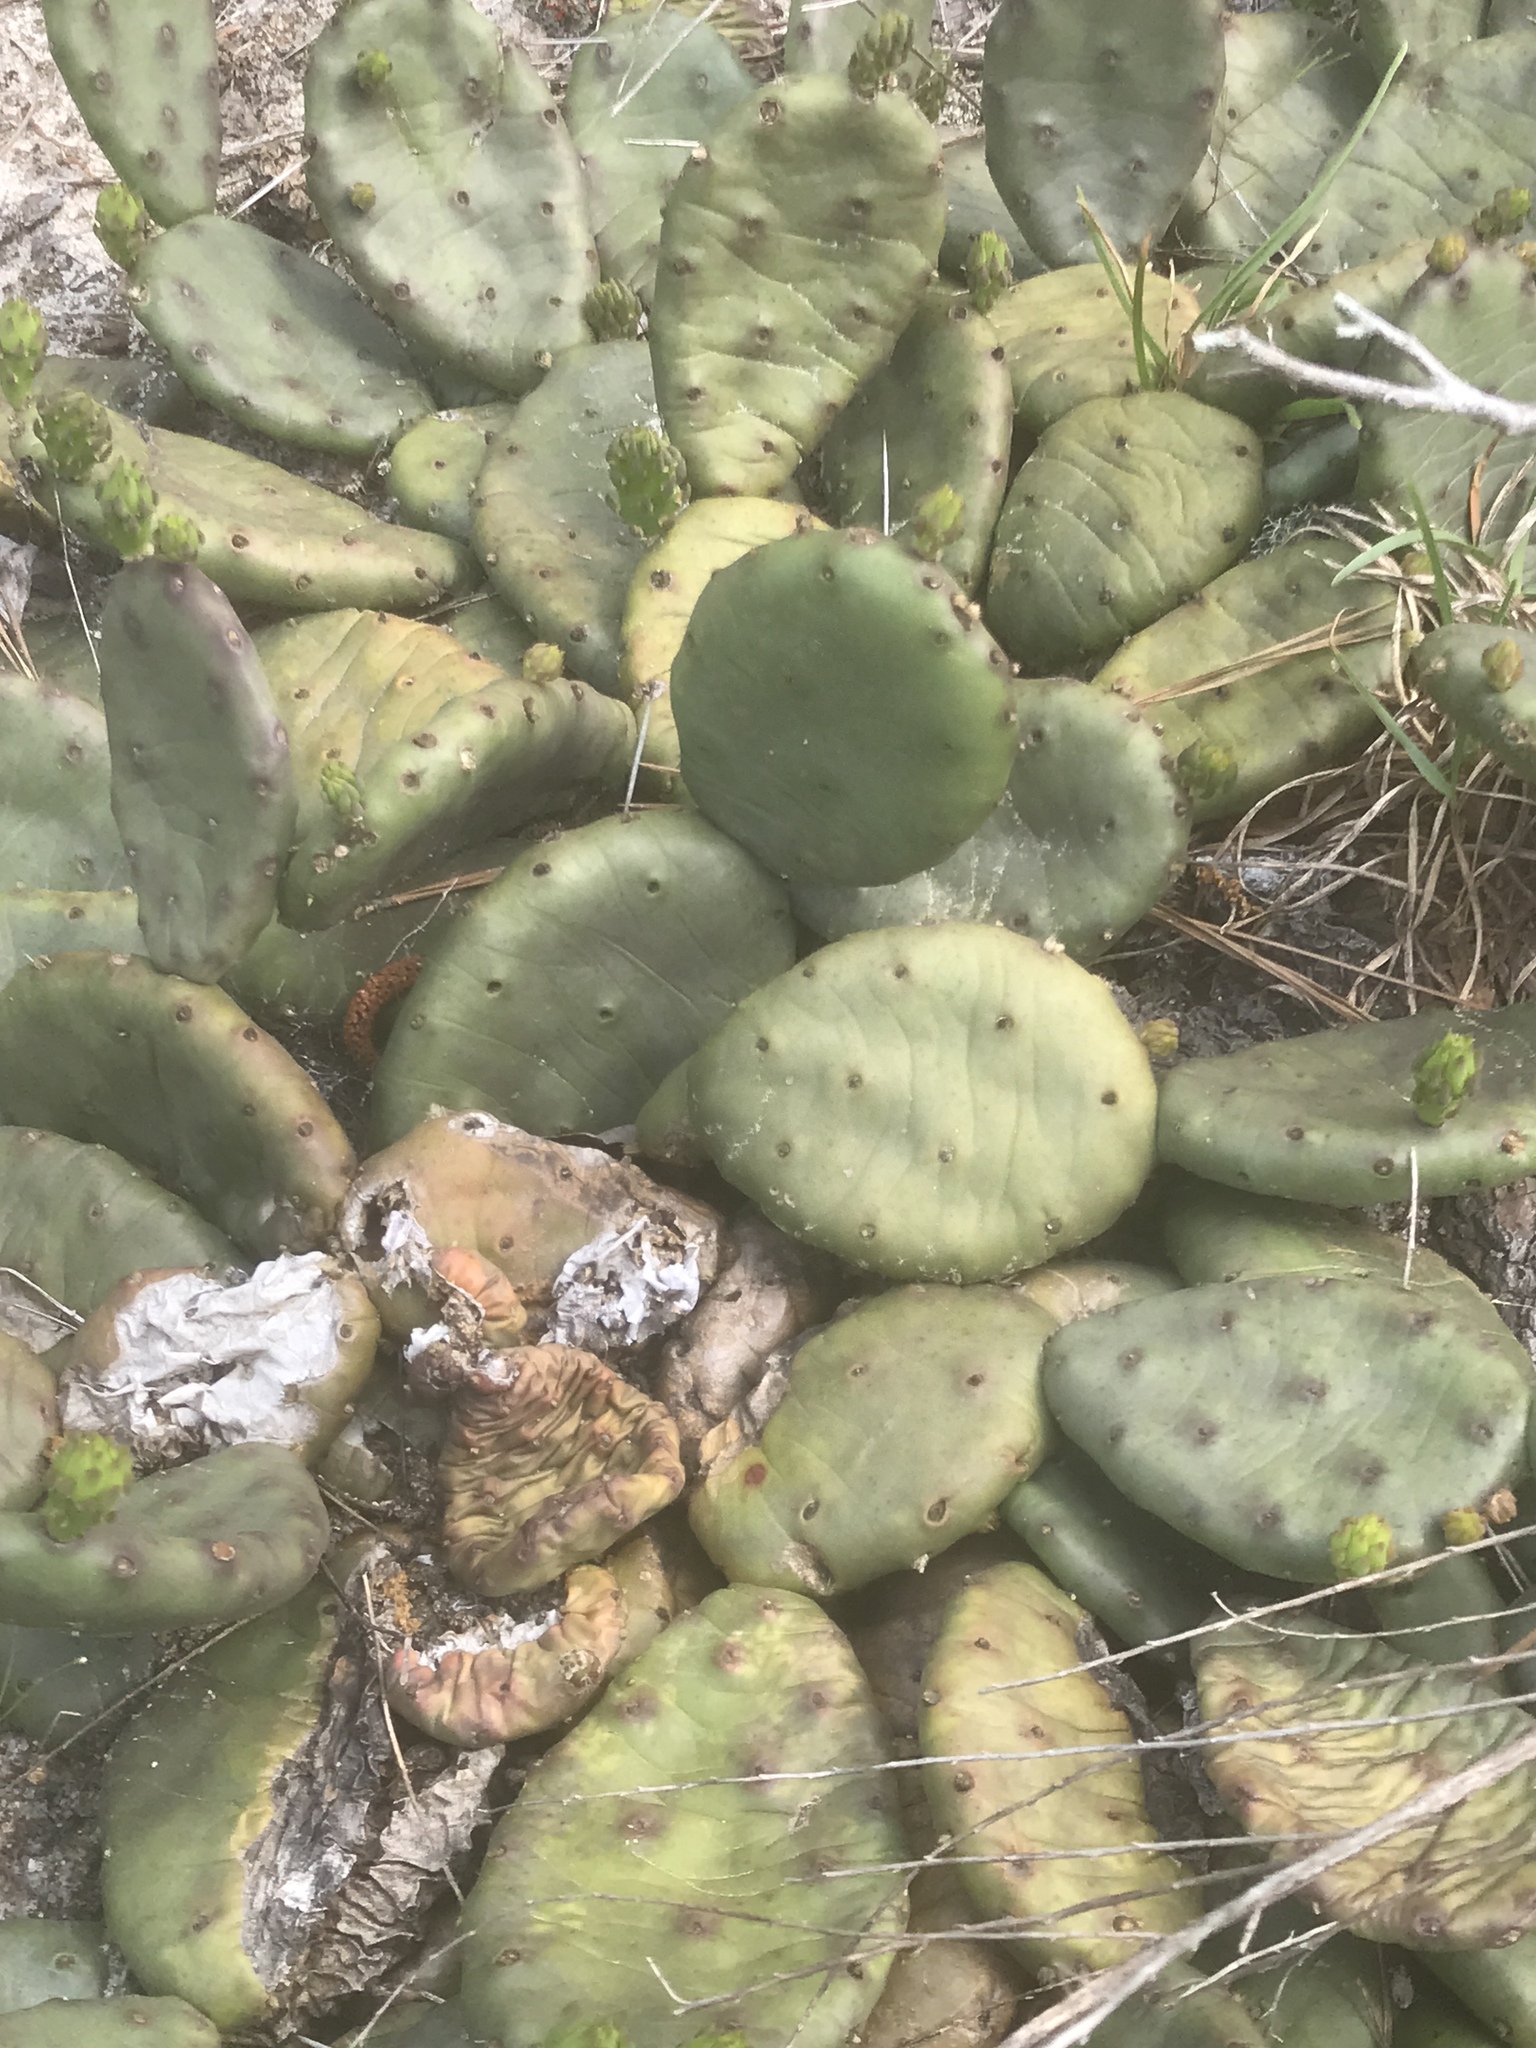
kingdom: Plantae
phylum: Tracheophyta
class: Magnoliopsida
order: Caryophyllales
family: Cactaceae
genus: Opuntia
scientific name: Opuntia mesacantha
